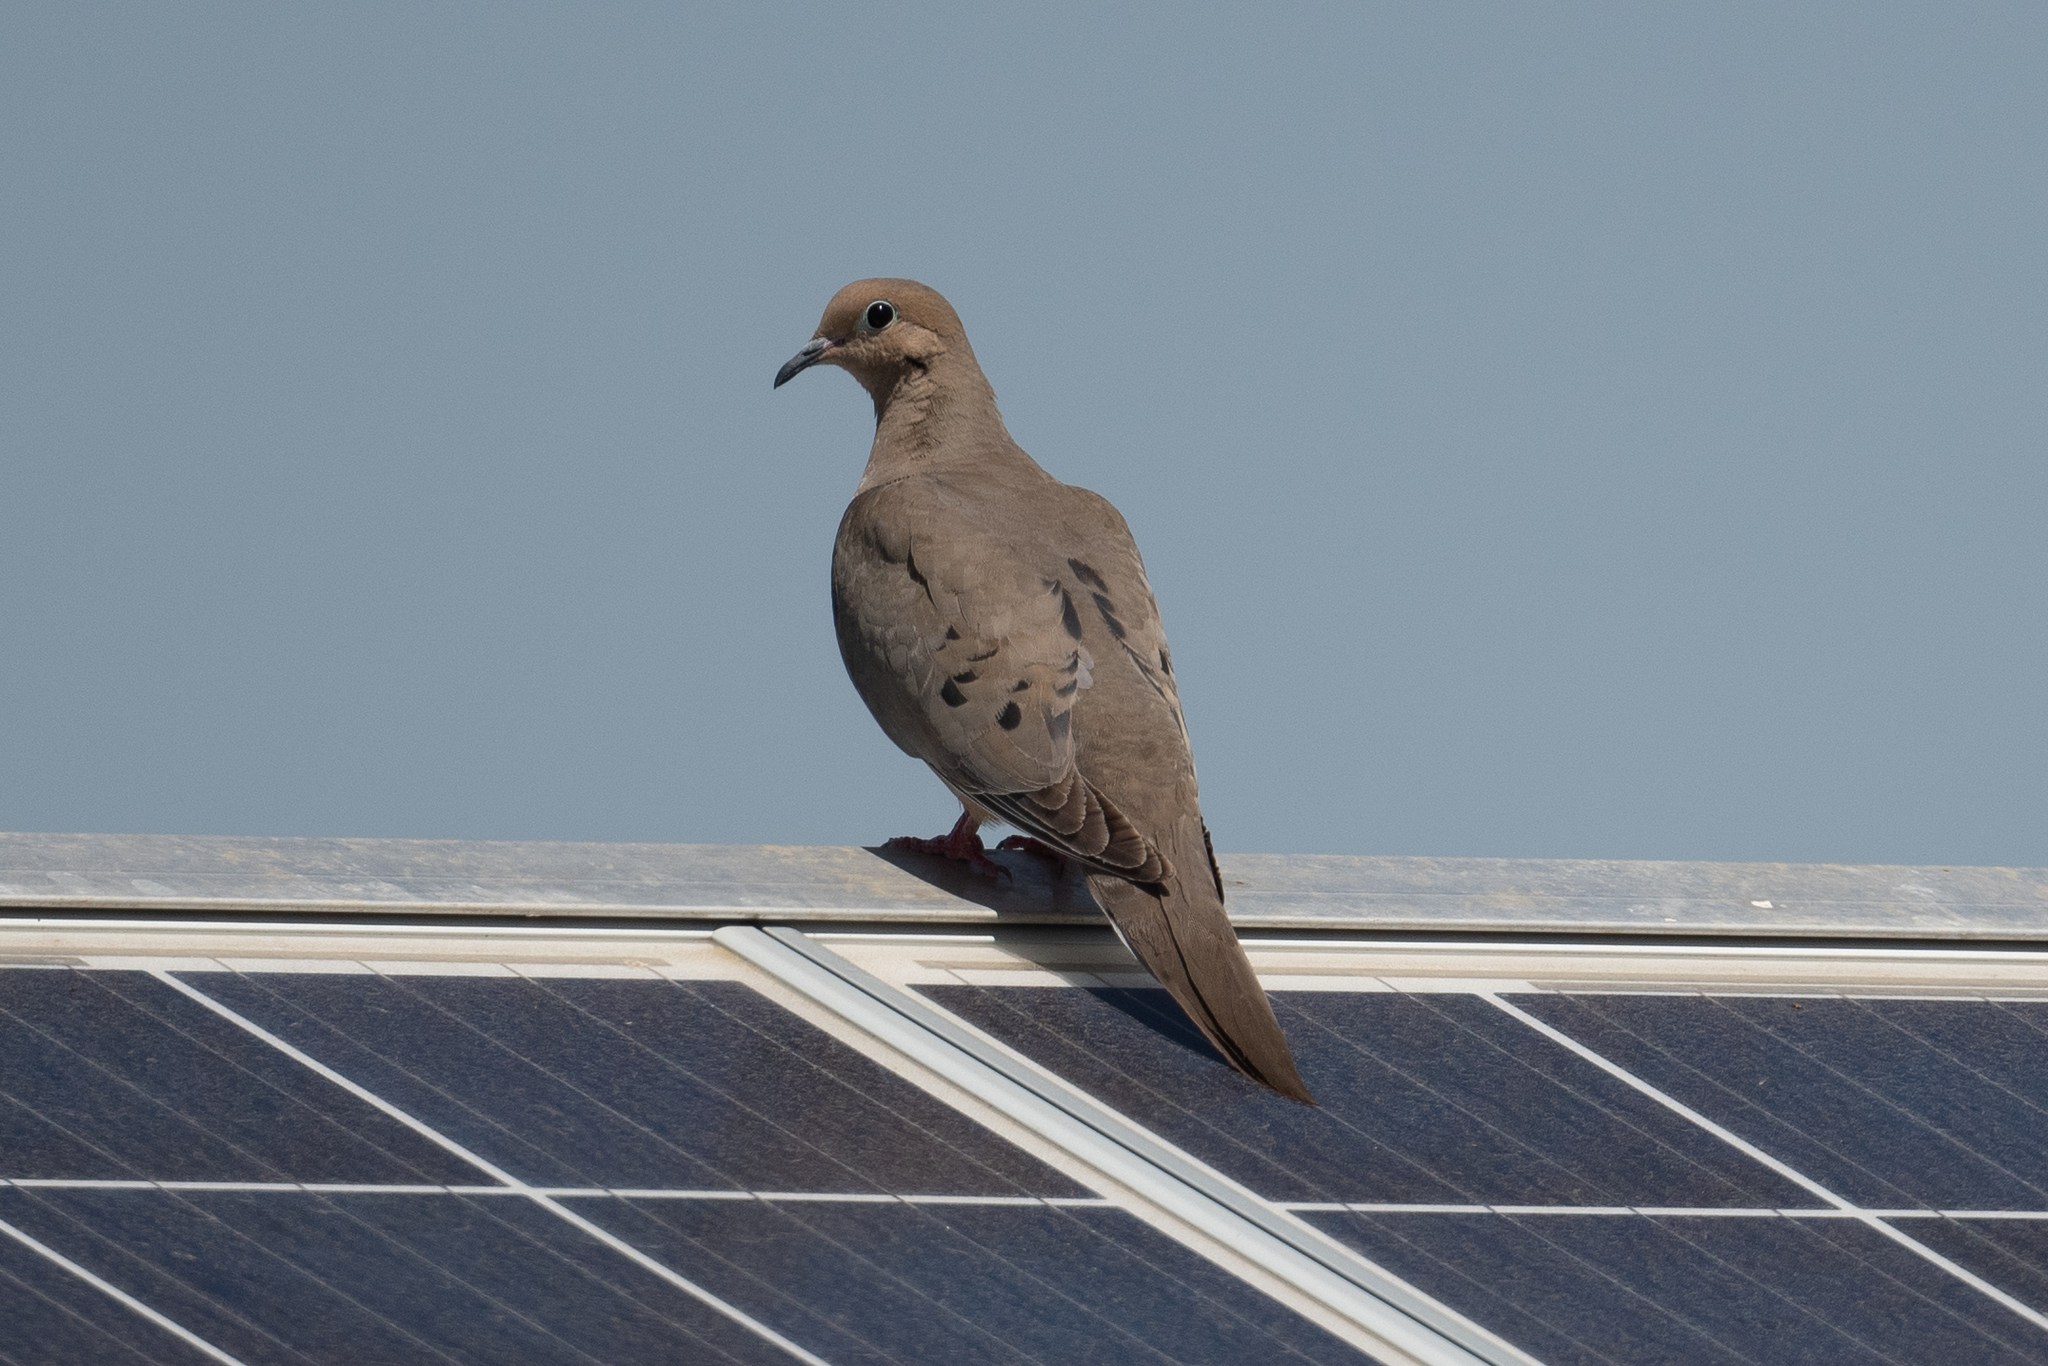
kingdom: Animalia
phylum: Chordata
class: Aves
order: Columbiformes
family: Columbidae
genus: Zenaida
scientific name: Zenaida macroura
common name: Mourning dove
